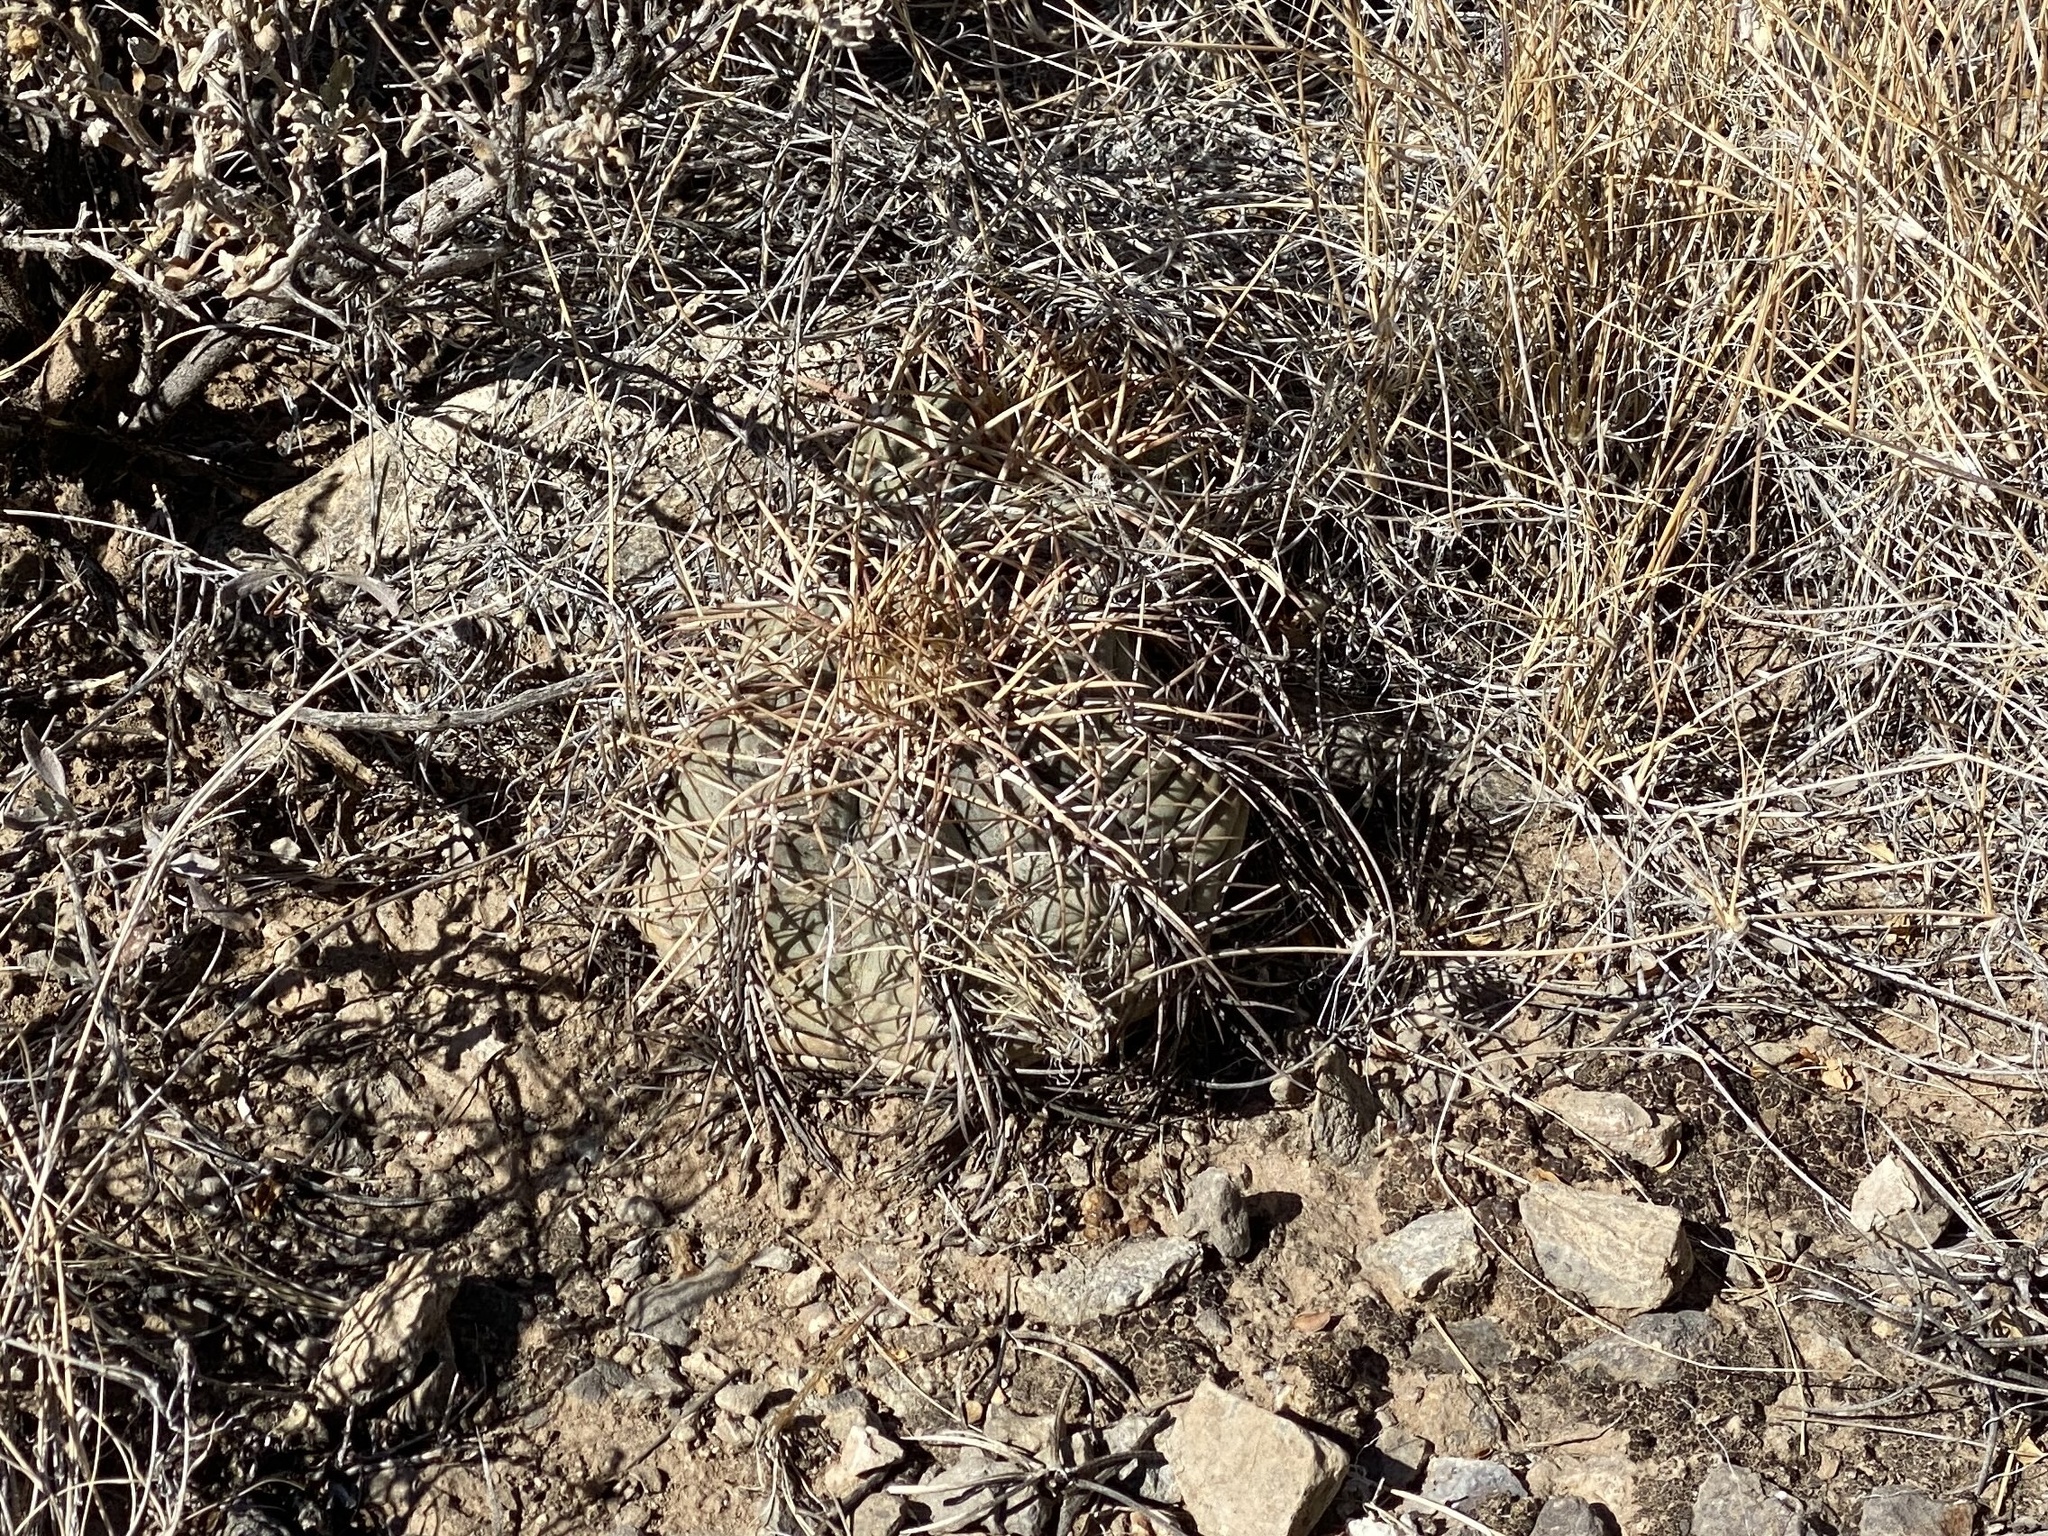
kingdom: Plantae
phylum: Tracheophyta
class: Magnoliopsida
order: Caryophyllales
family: Cactaceae
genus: Echinocactus
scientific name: Echinocactus horizonthalonius
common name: Devilshead
